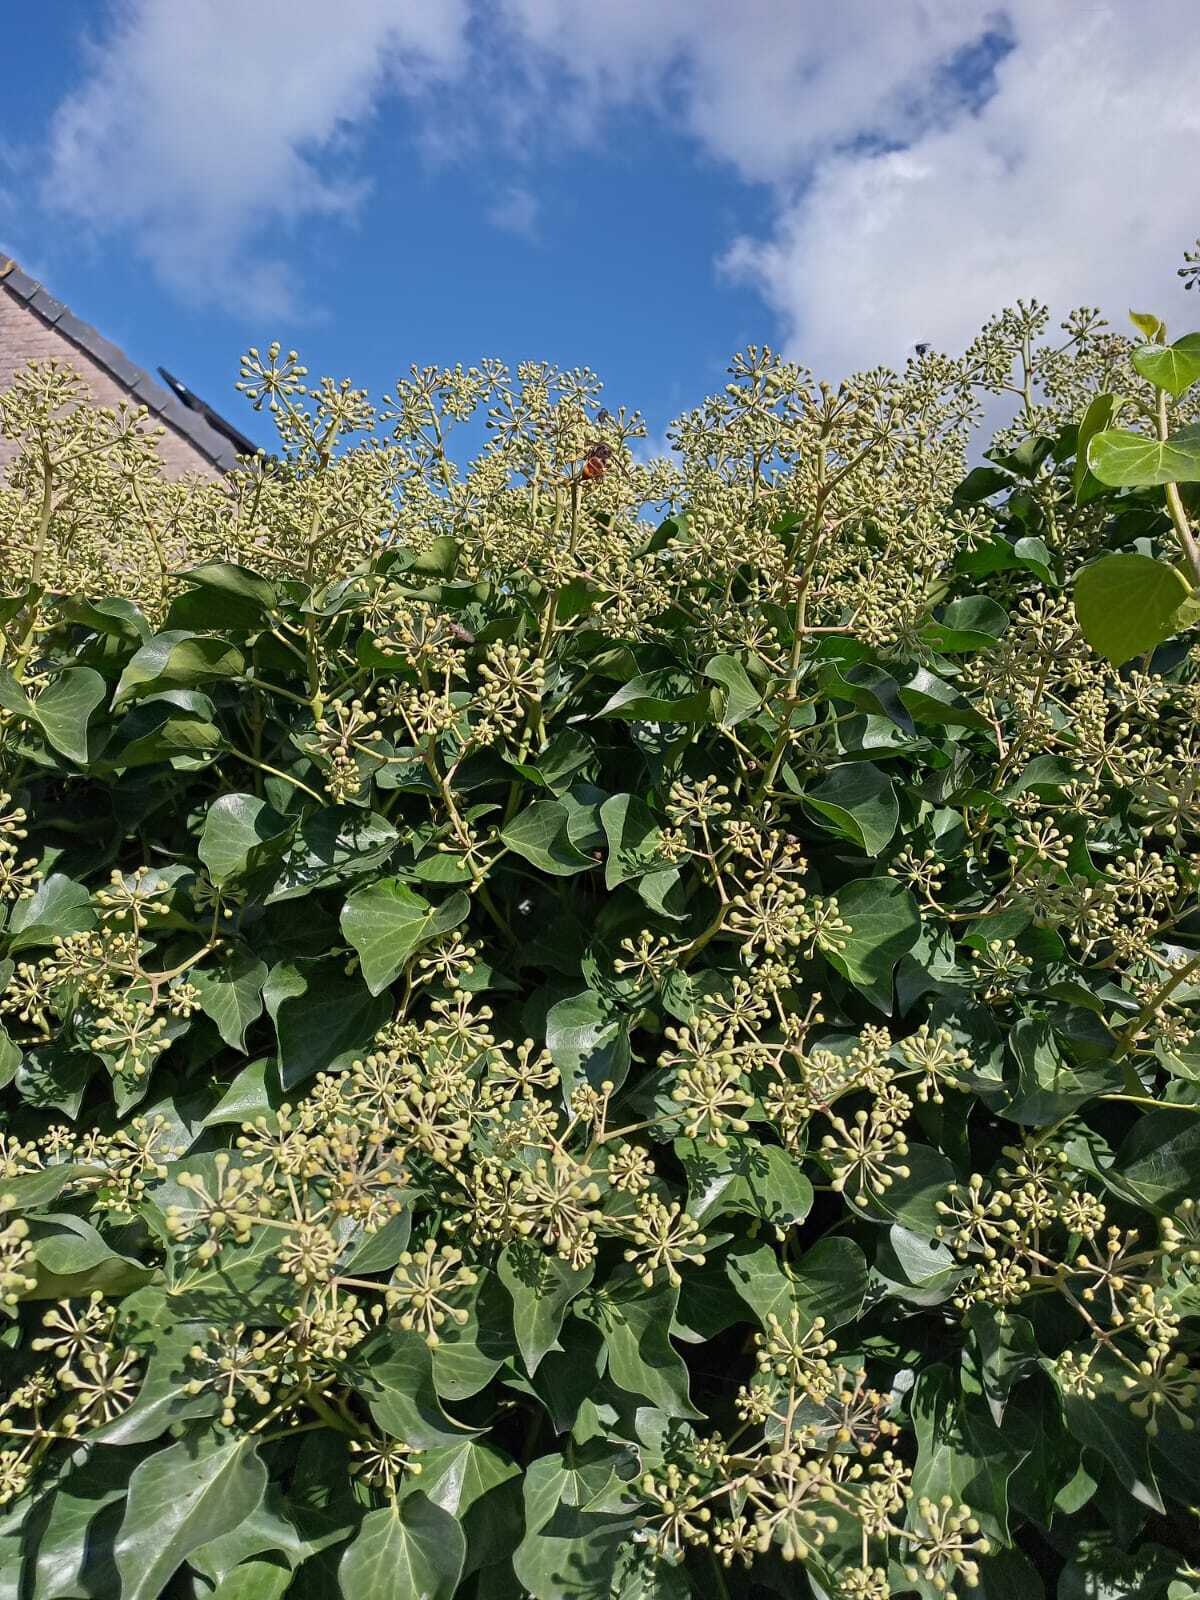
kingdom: Animalia
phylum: Arthropoda
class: Insecta
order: Hymenoptera
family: Vespidae
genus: Vespa
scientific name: Vespa velutina
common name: Asian hornet
